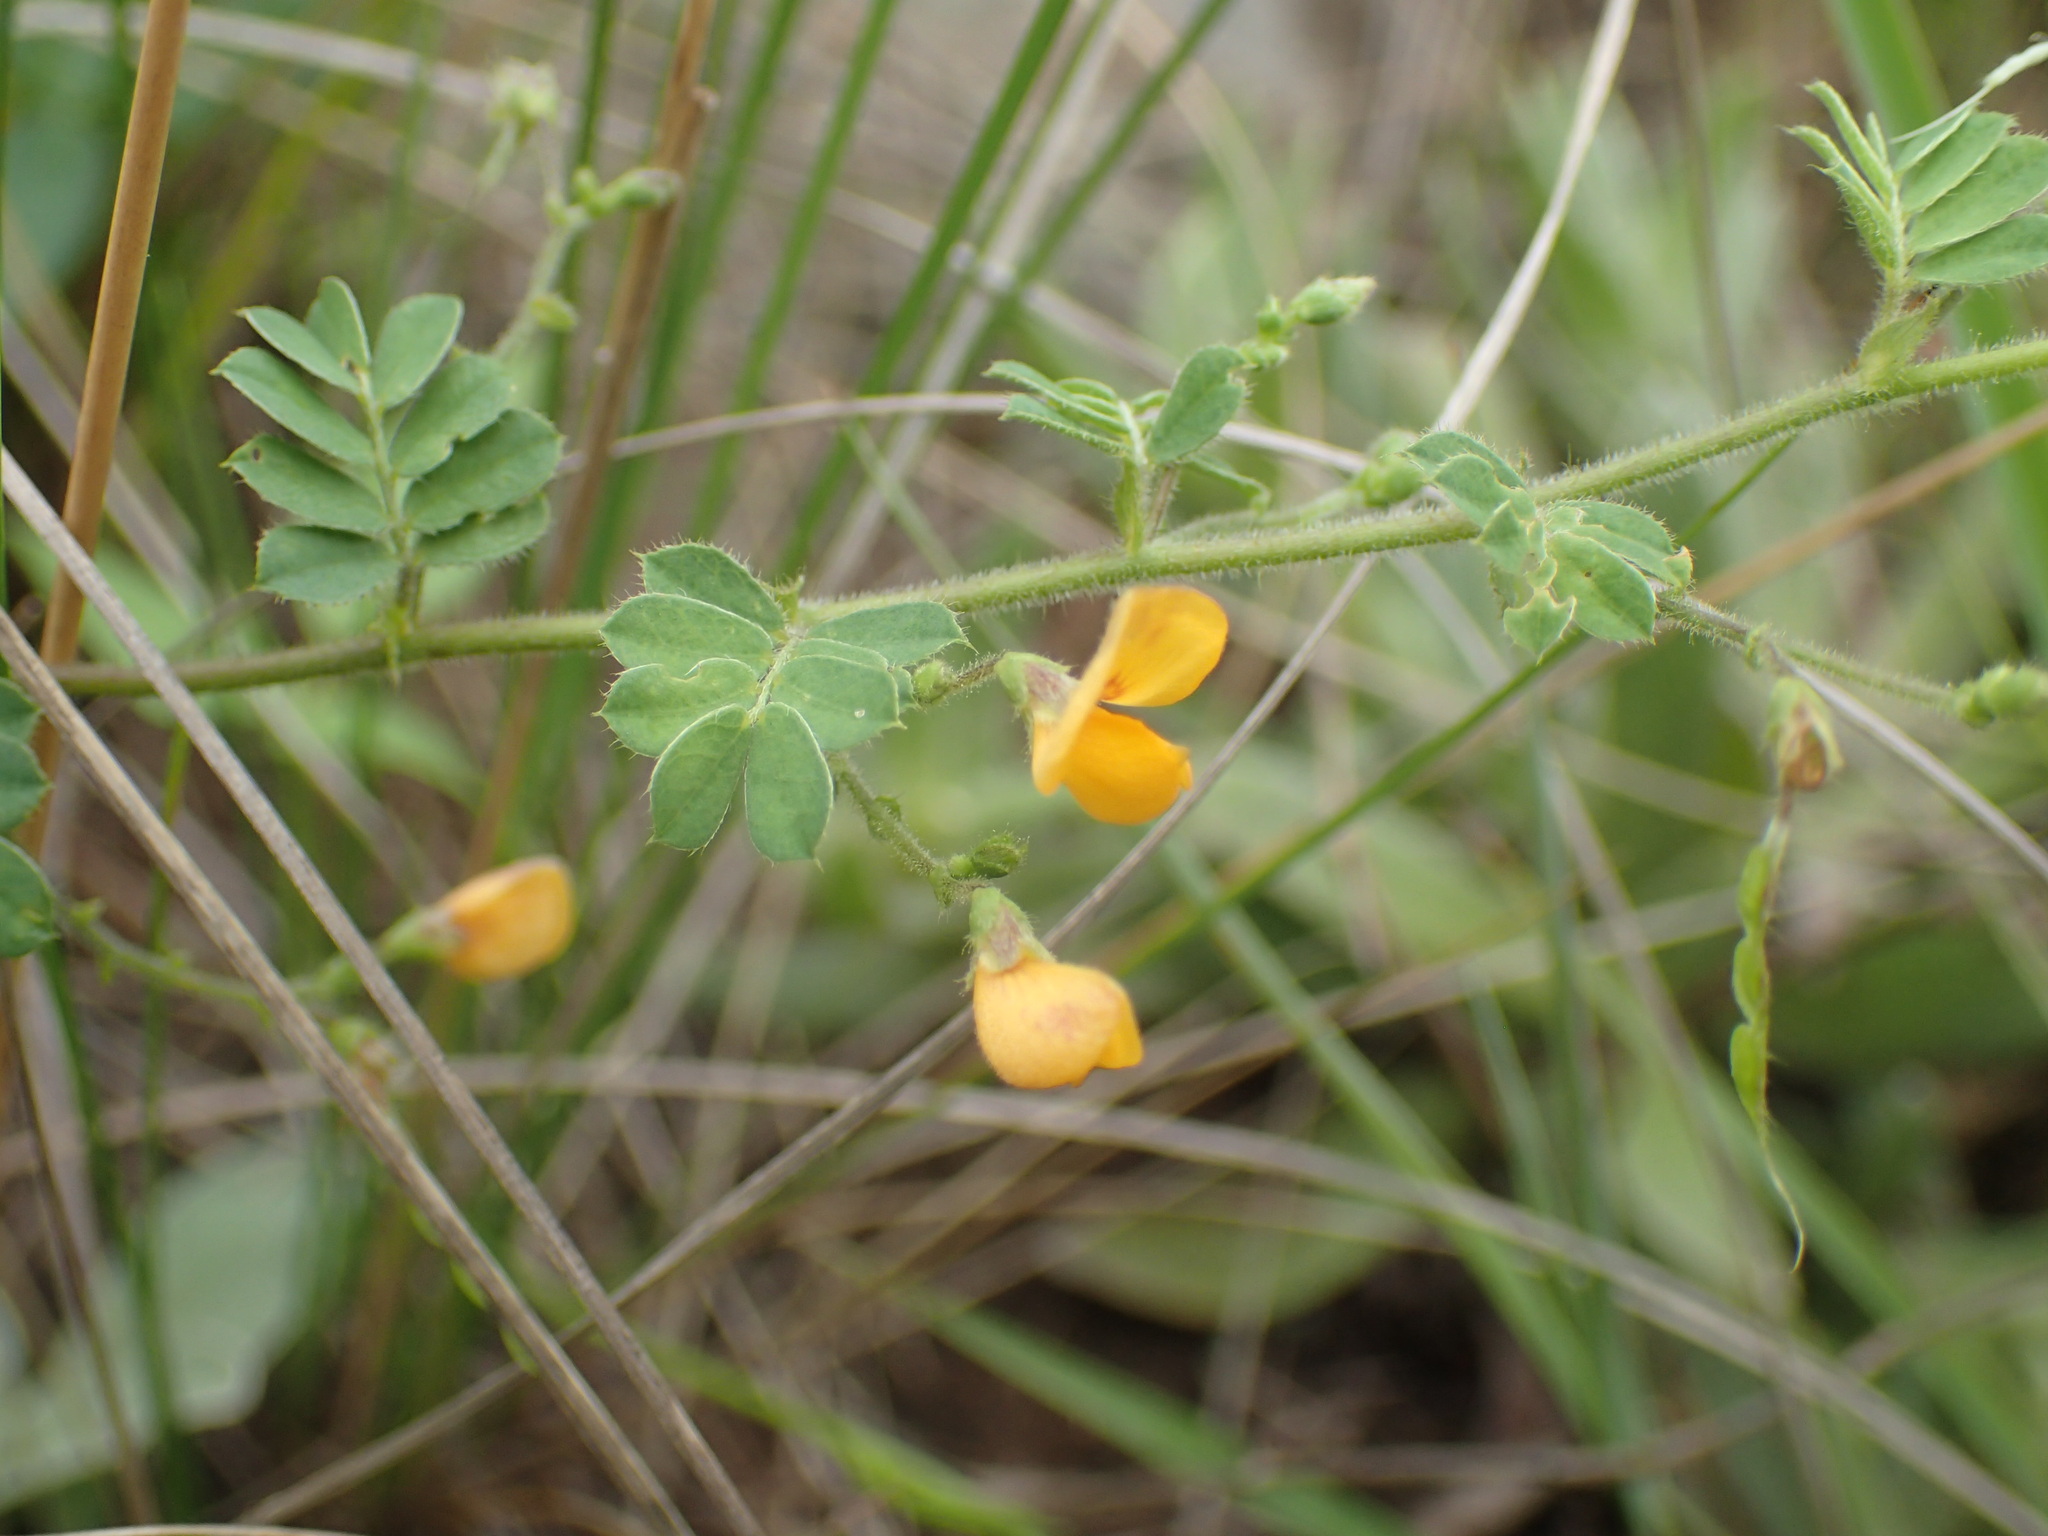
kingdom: Plantae
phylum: Tracheophyta
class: Magnoliopsida
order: Fabales
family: Fabaceae
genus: Aeschynomene
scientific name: Aeschynomene brevifolia
